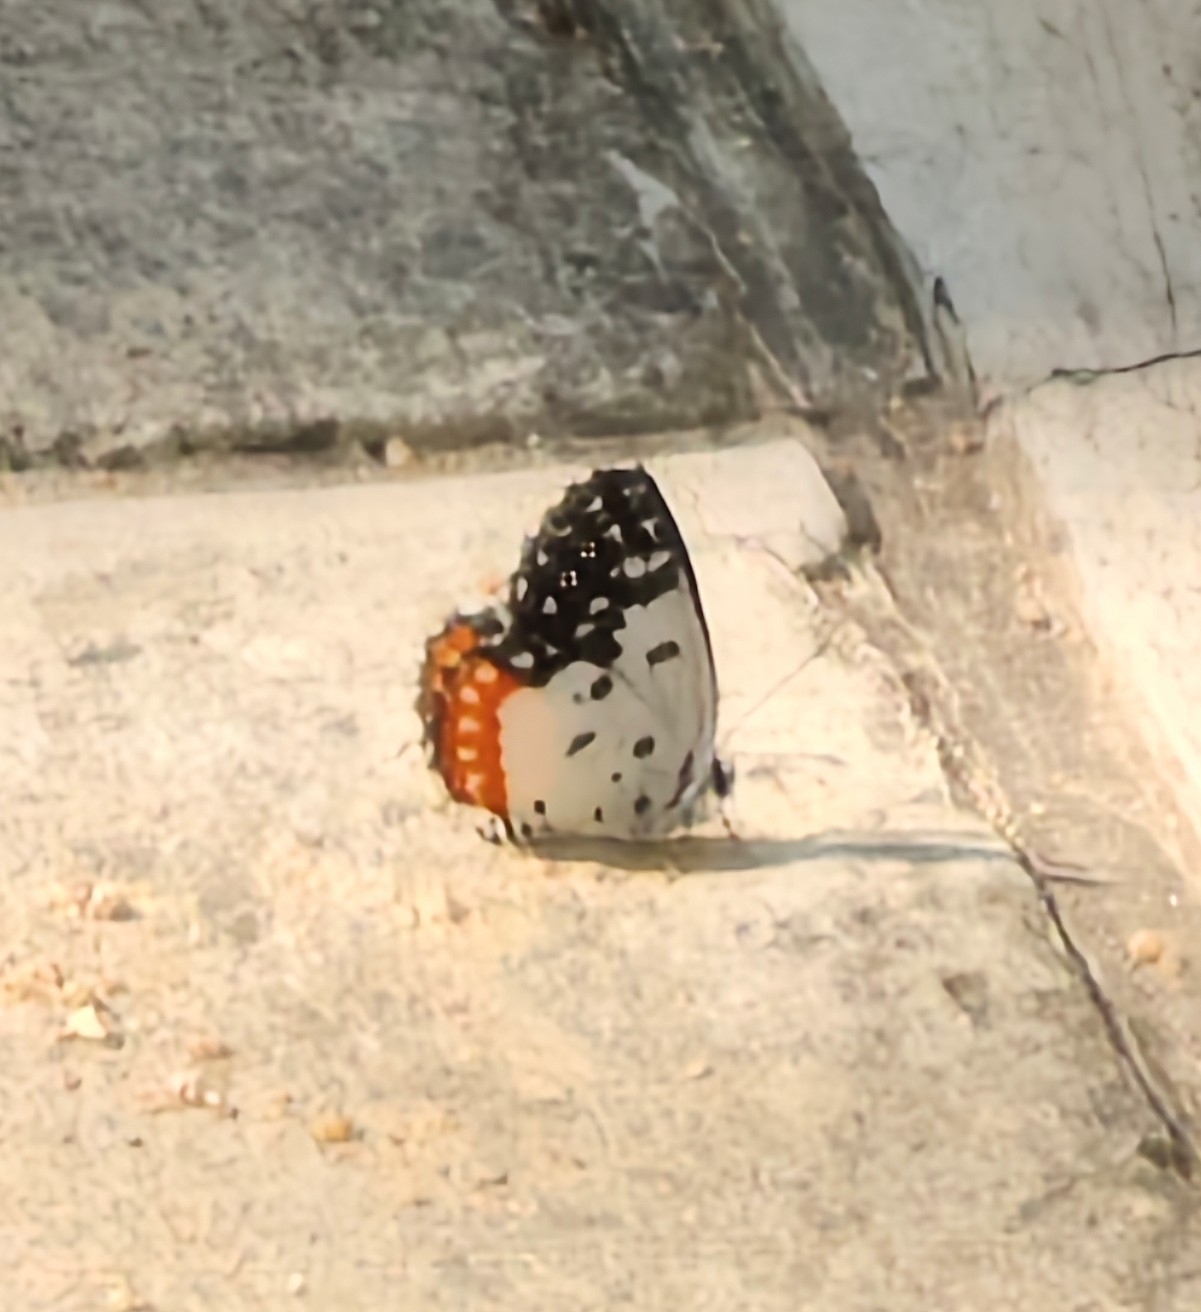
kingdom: Animalia
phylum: Arthropoda
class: Insecta
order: Lepidoptera
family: Lycaenidae
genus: Talicada
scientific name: Talicada nyseus
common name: Red pierrot
